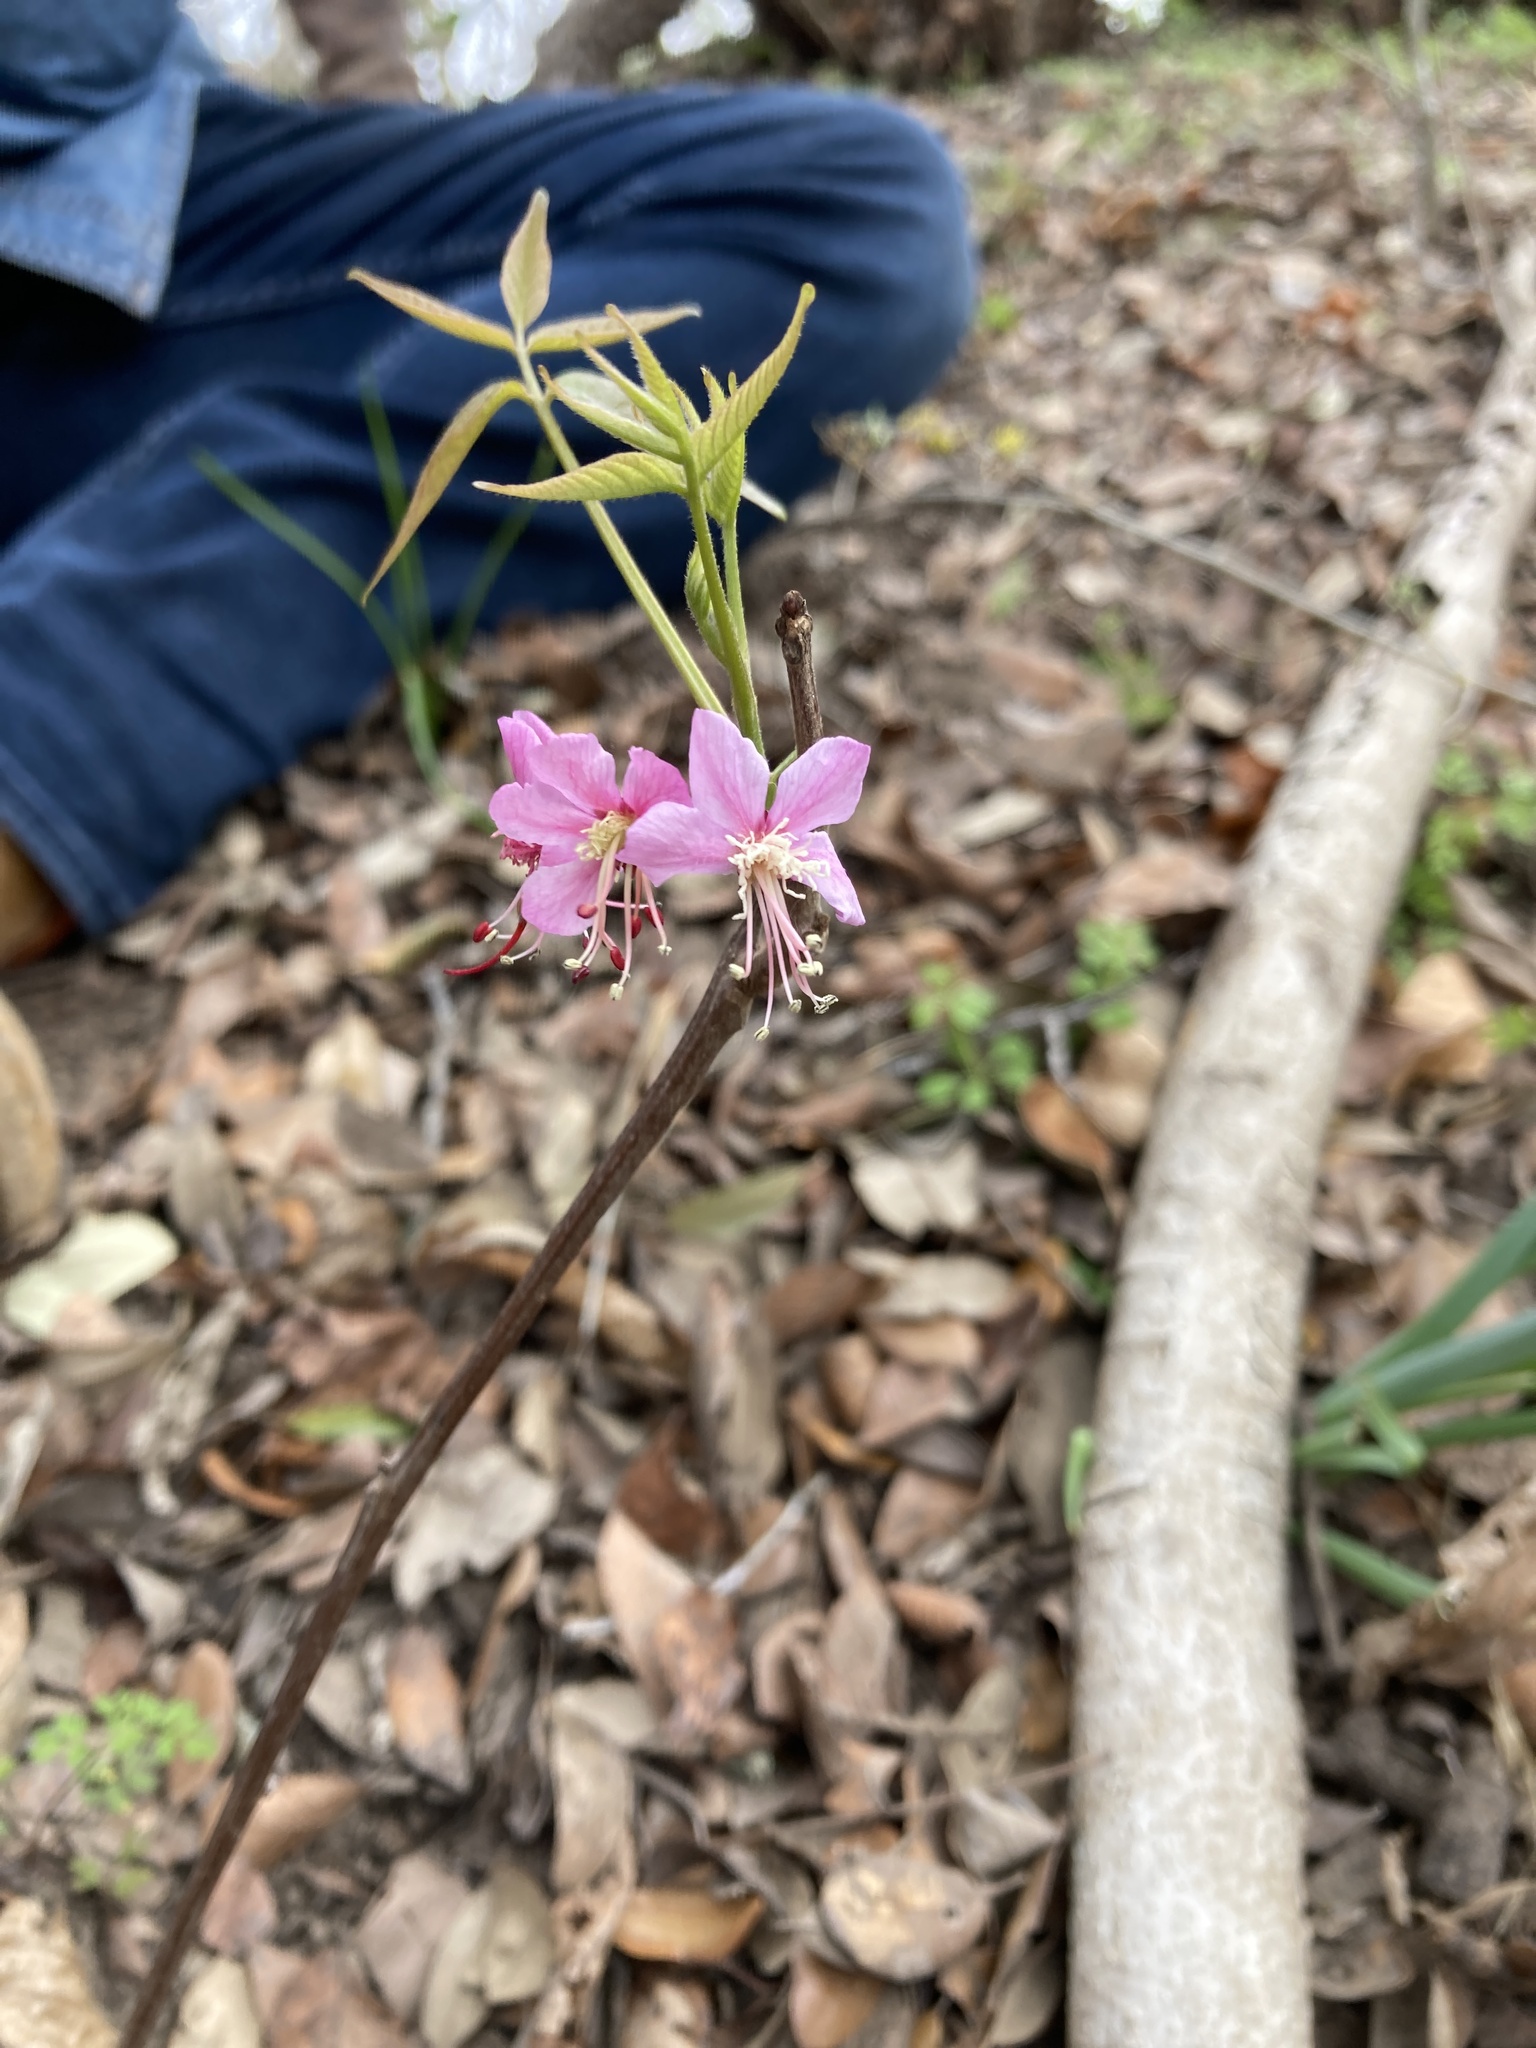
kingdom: Plantae
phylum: Tracheophyta
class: Magnoliopsida
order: Sapindales
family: Sapindaceae
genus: Ungnadia
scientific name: Ungnadia speciosa
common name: Texas-buckeye
